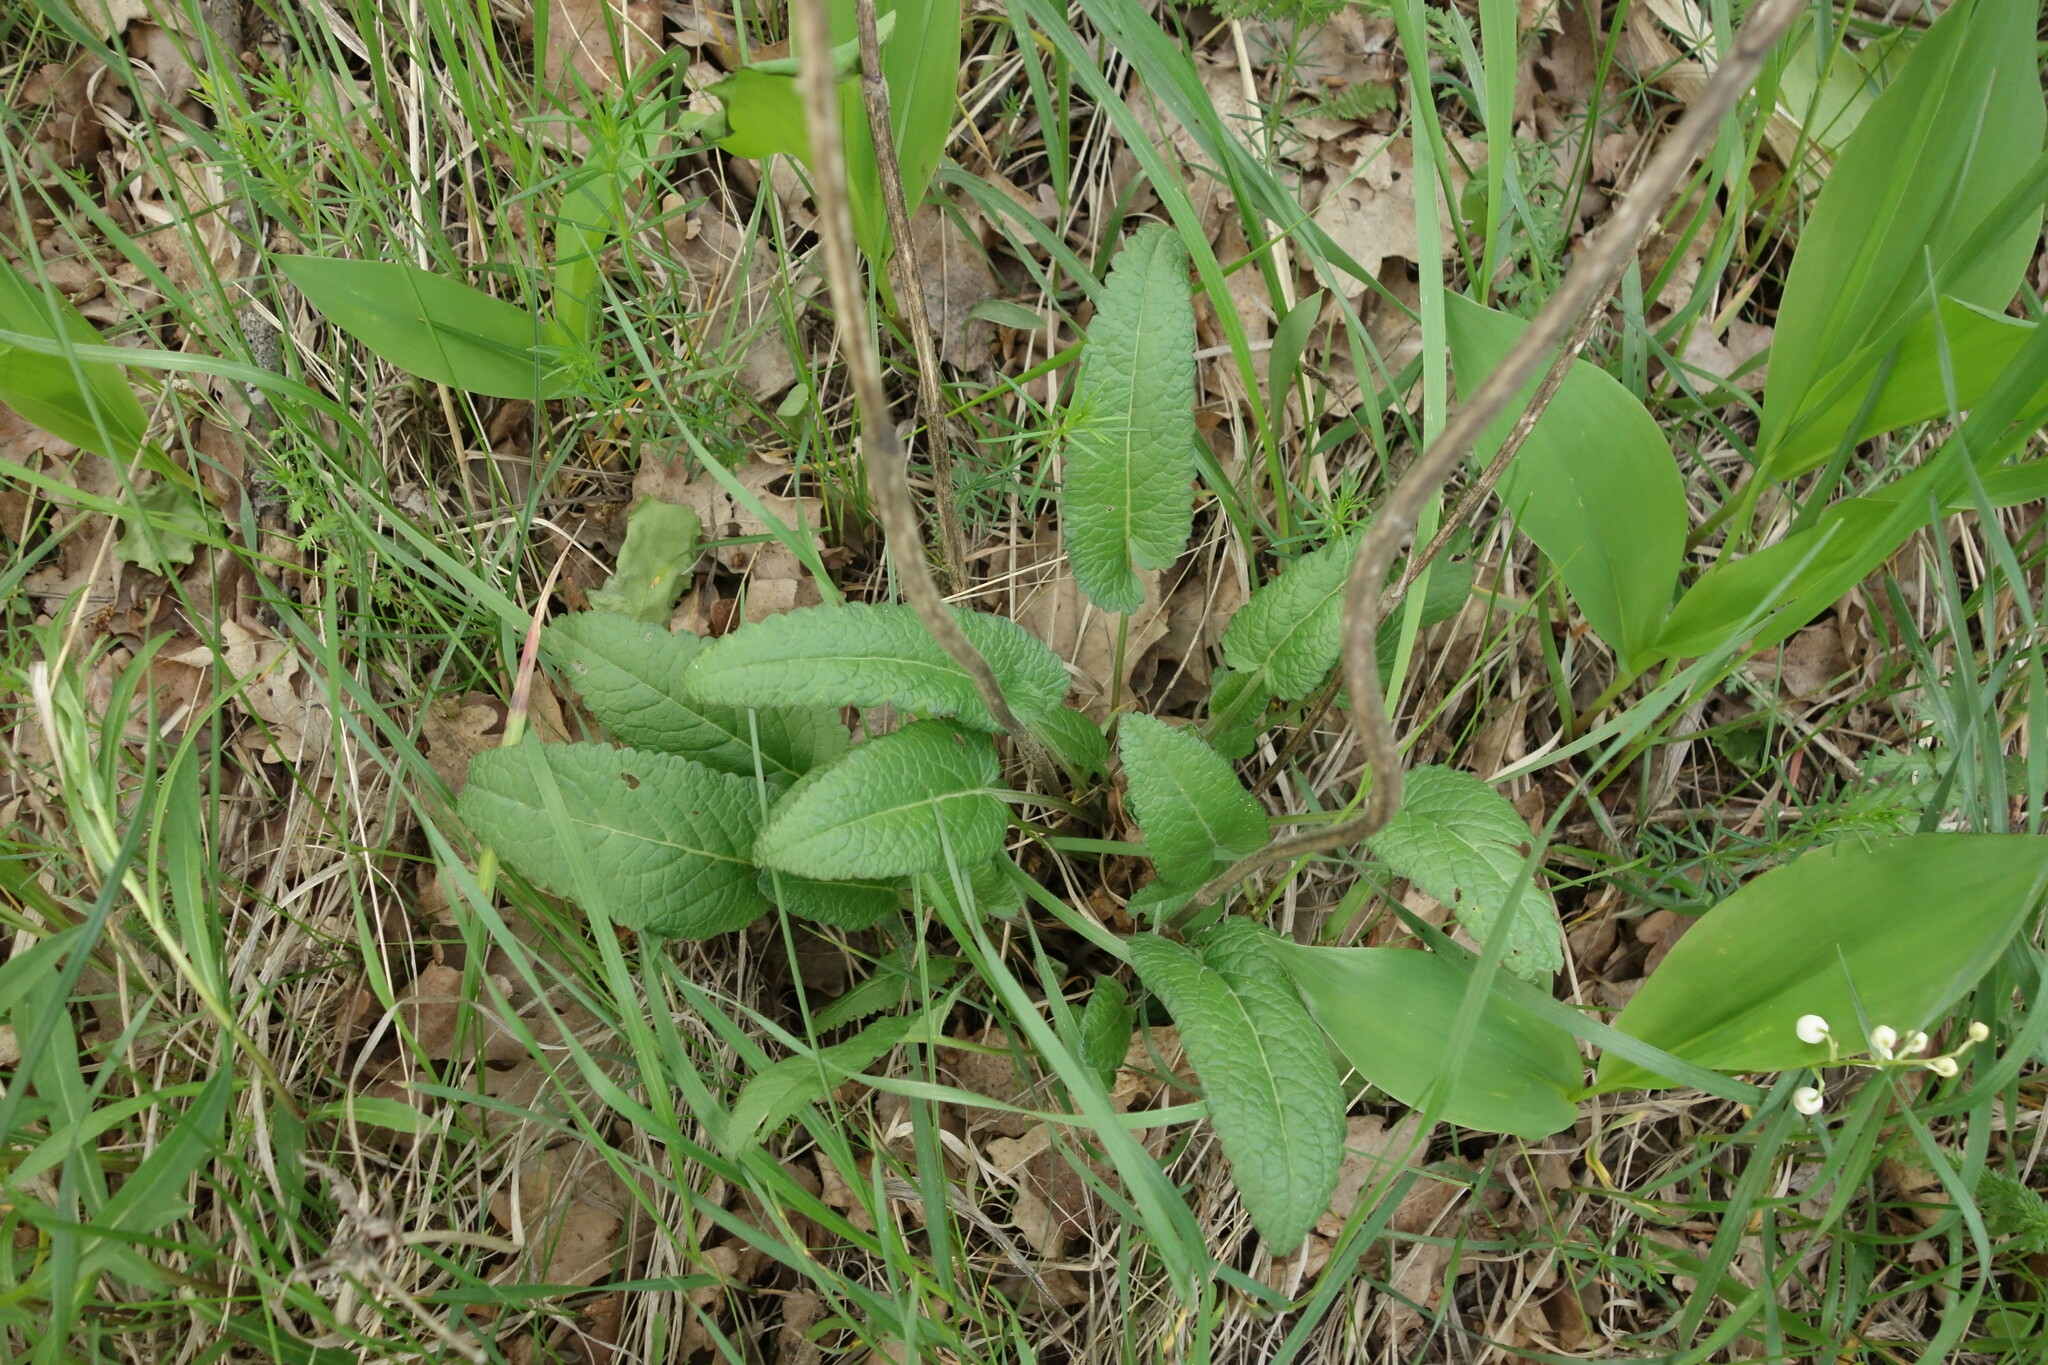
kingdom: Plantae
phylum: Tracheophyta
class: Magnoliopsida
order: Lamiales
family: Lamiaceae
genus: Betonica
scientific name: Betonica officinalis
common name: Bishop's-wort
